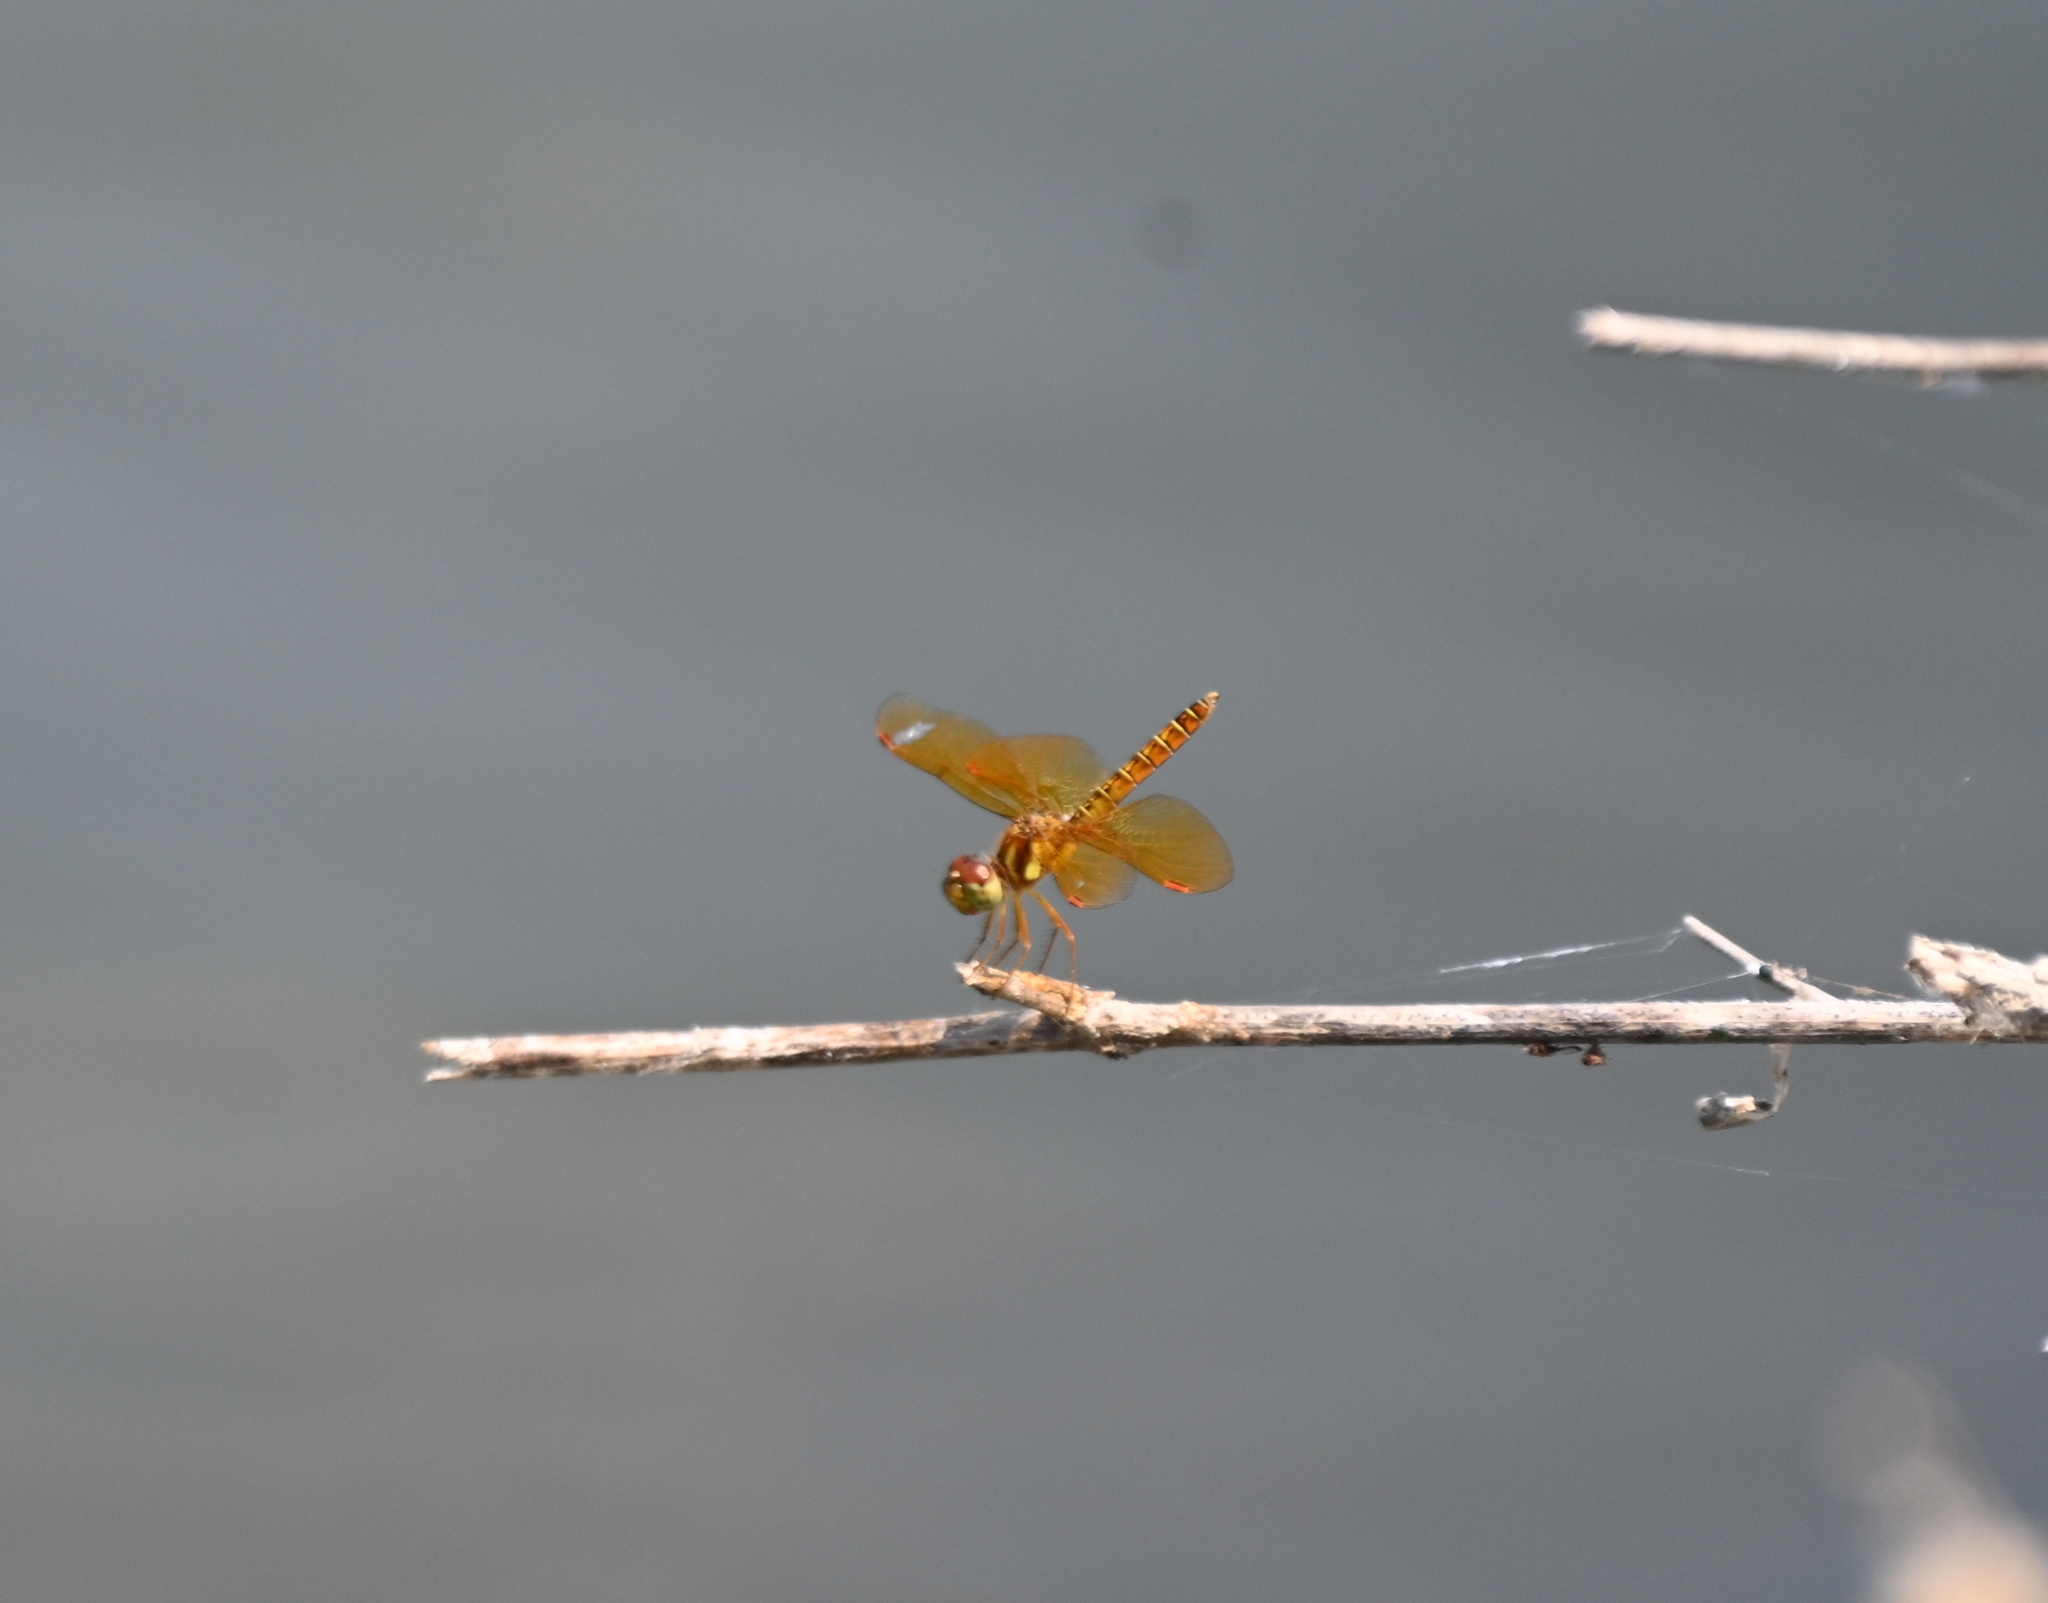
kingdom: Animalia
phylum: Arthropoda
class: Insecta
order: Odonata
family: Libellulidae
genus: Perithemis
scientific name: Perithemis tenera
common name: Eastern amberwing
